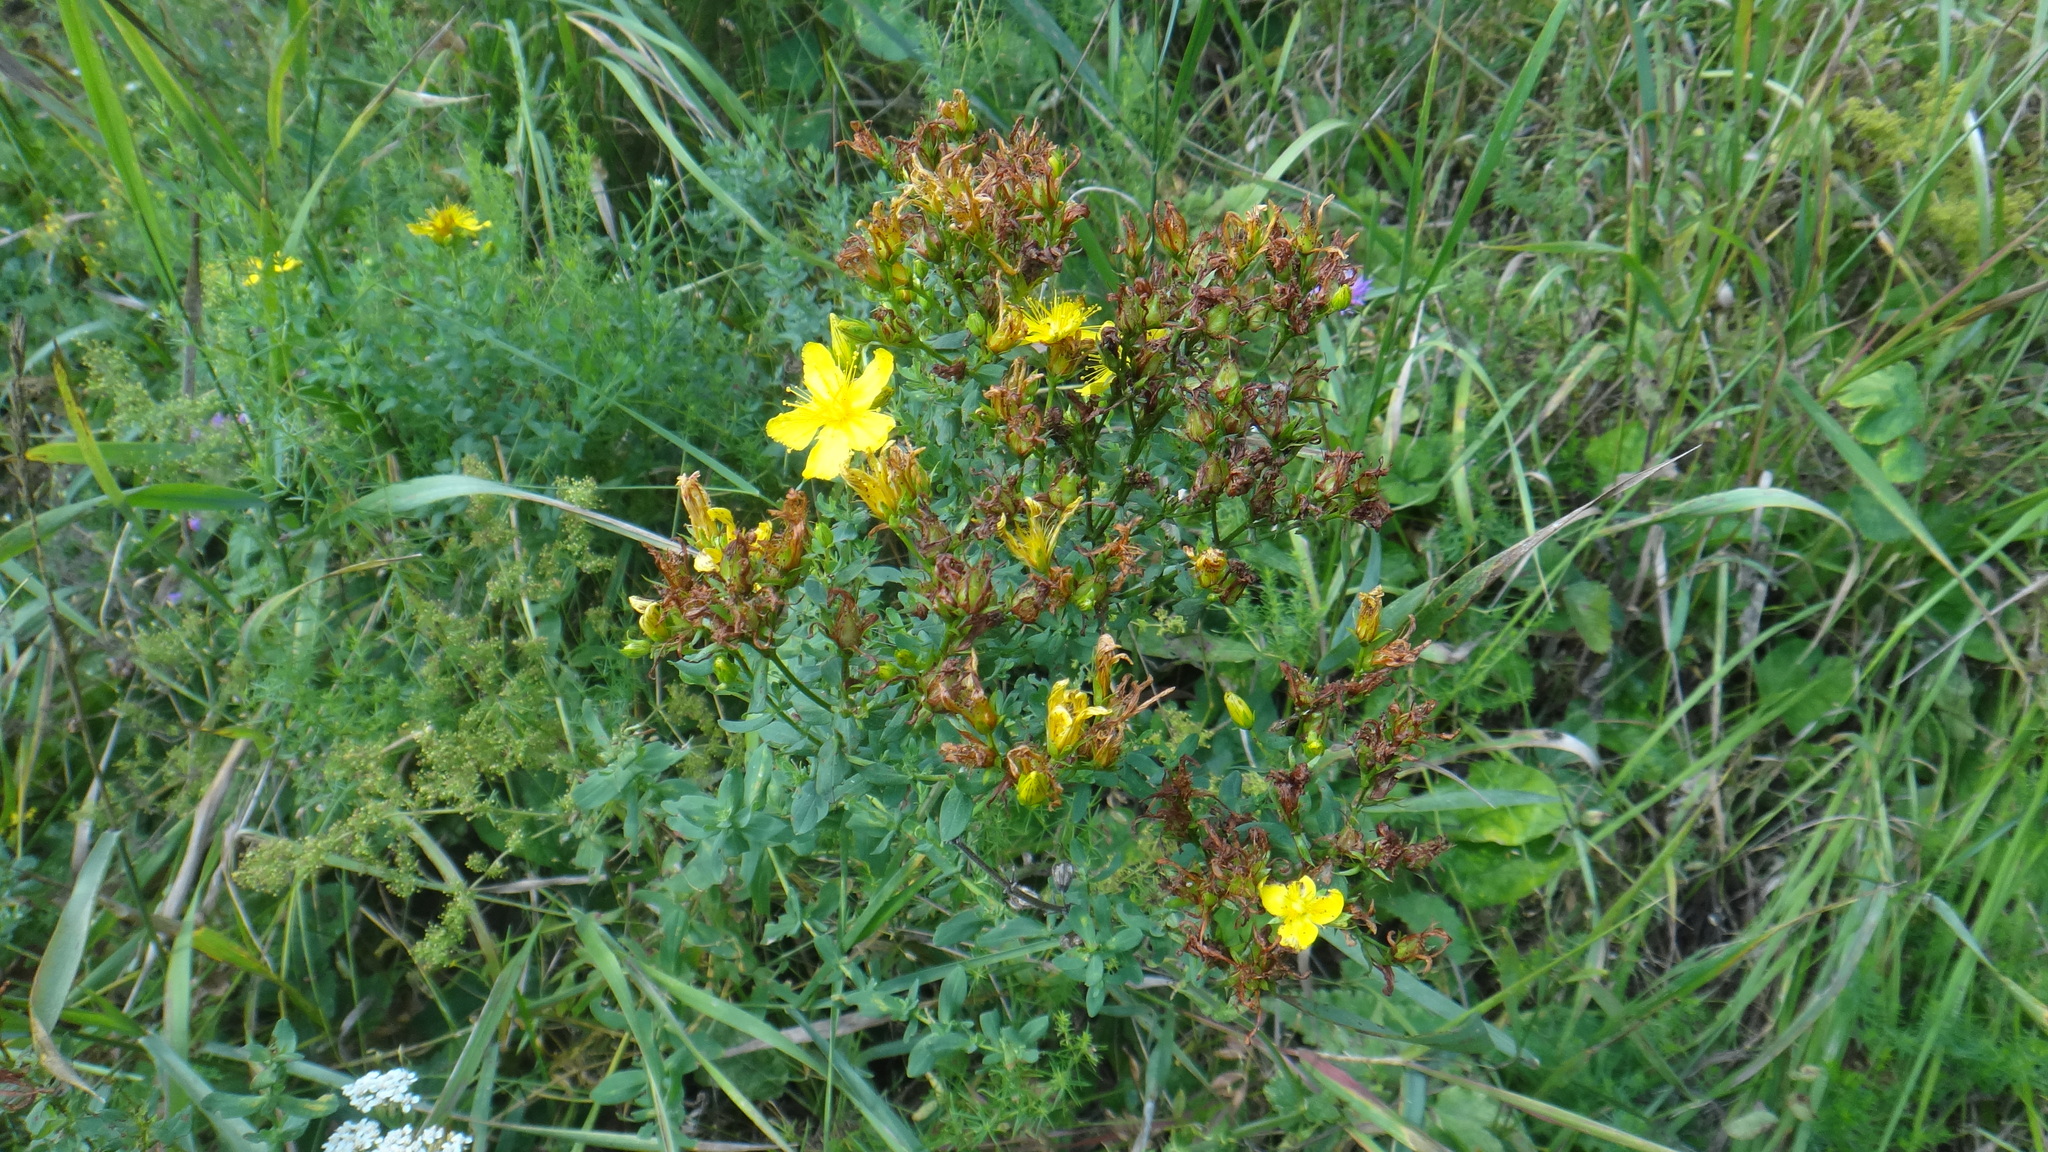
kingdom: Plantae
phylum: Tracheophyta
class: Magnoliopsida
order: Malpighiales
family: Hypericaceae
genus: Hypericum
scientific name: Hypericum perforatum
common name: Common st. johnswort
